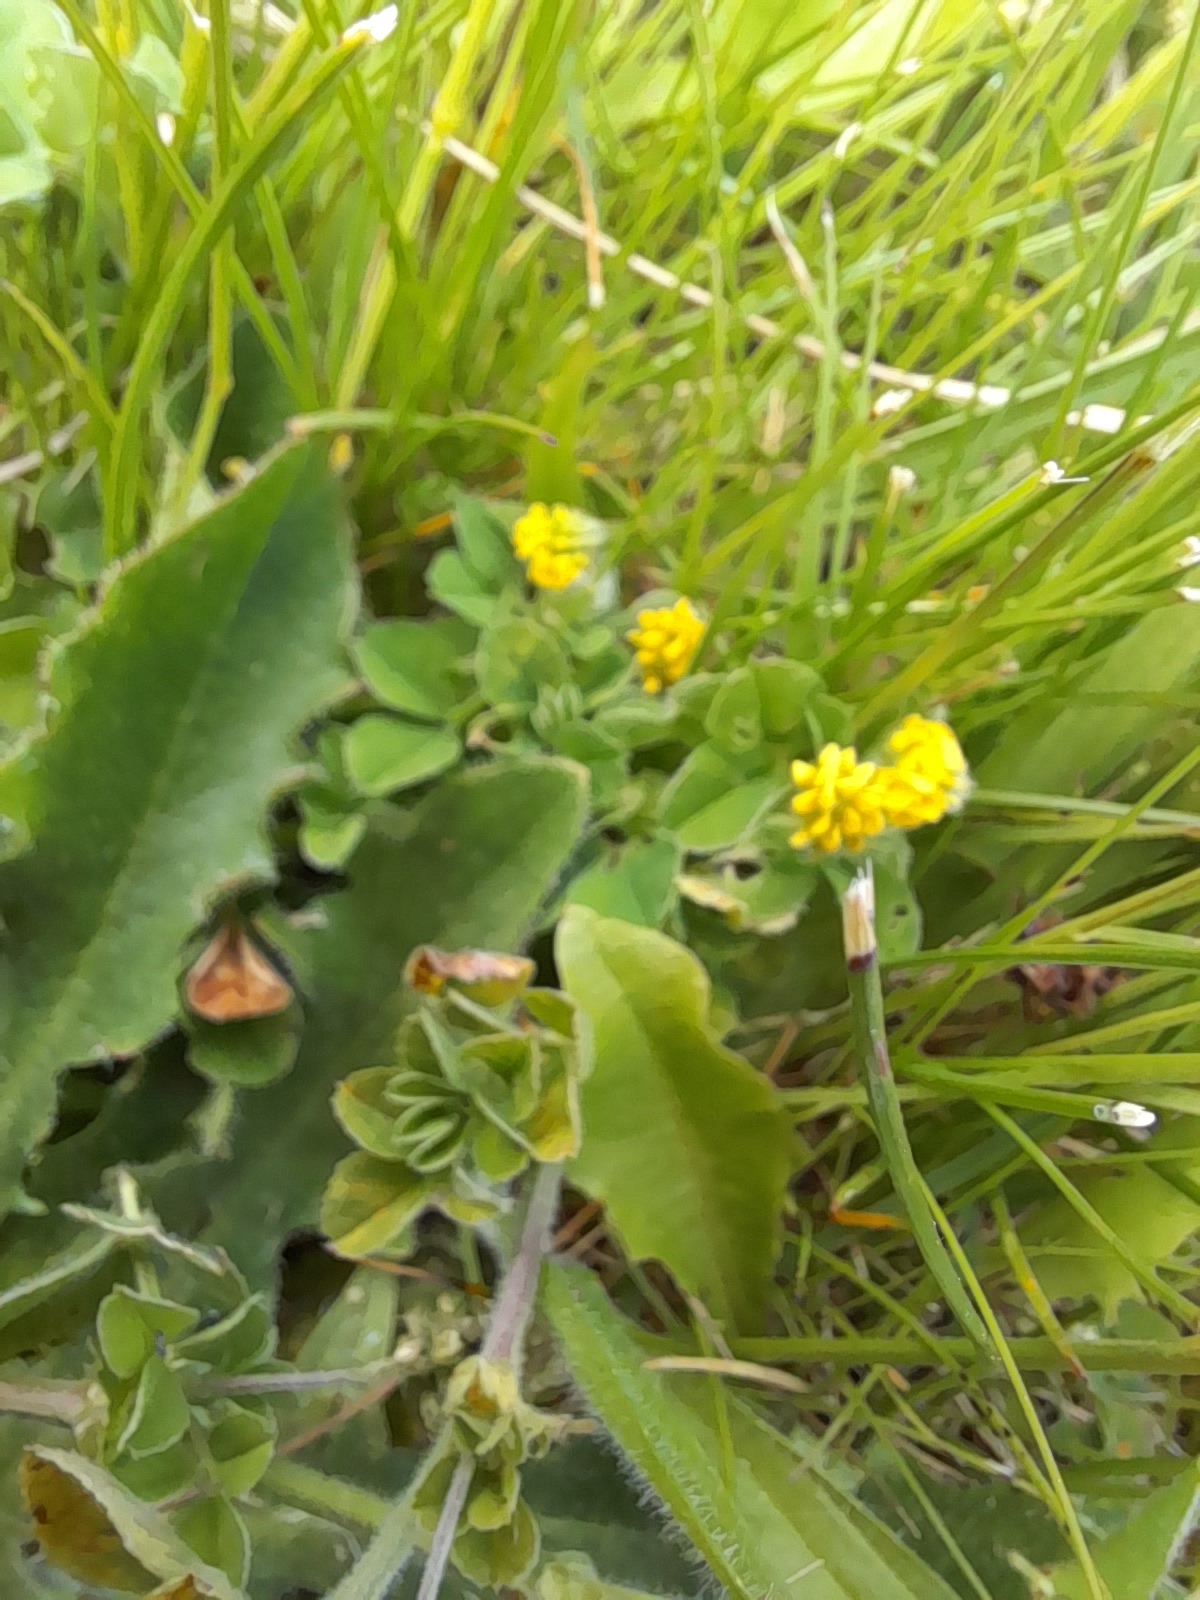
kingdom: Plantae
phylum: Tracheophyta
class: Magnoliopsida
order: Fabales
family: Fabaceae
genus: Medicago
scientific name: Medicago lupulina
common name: Black medick
